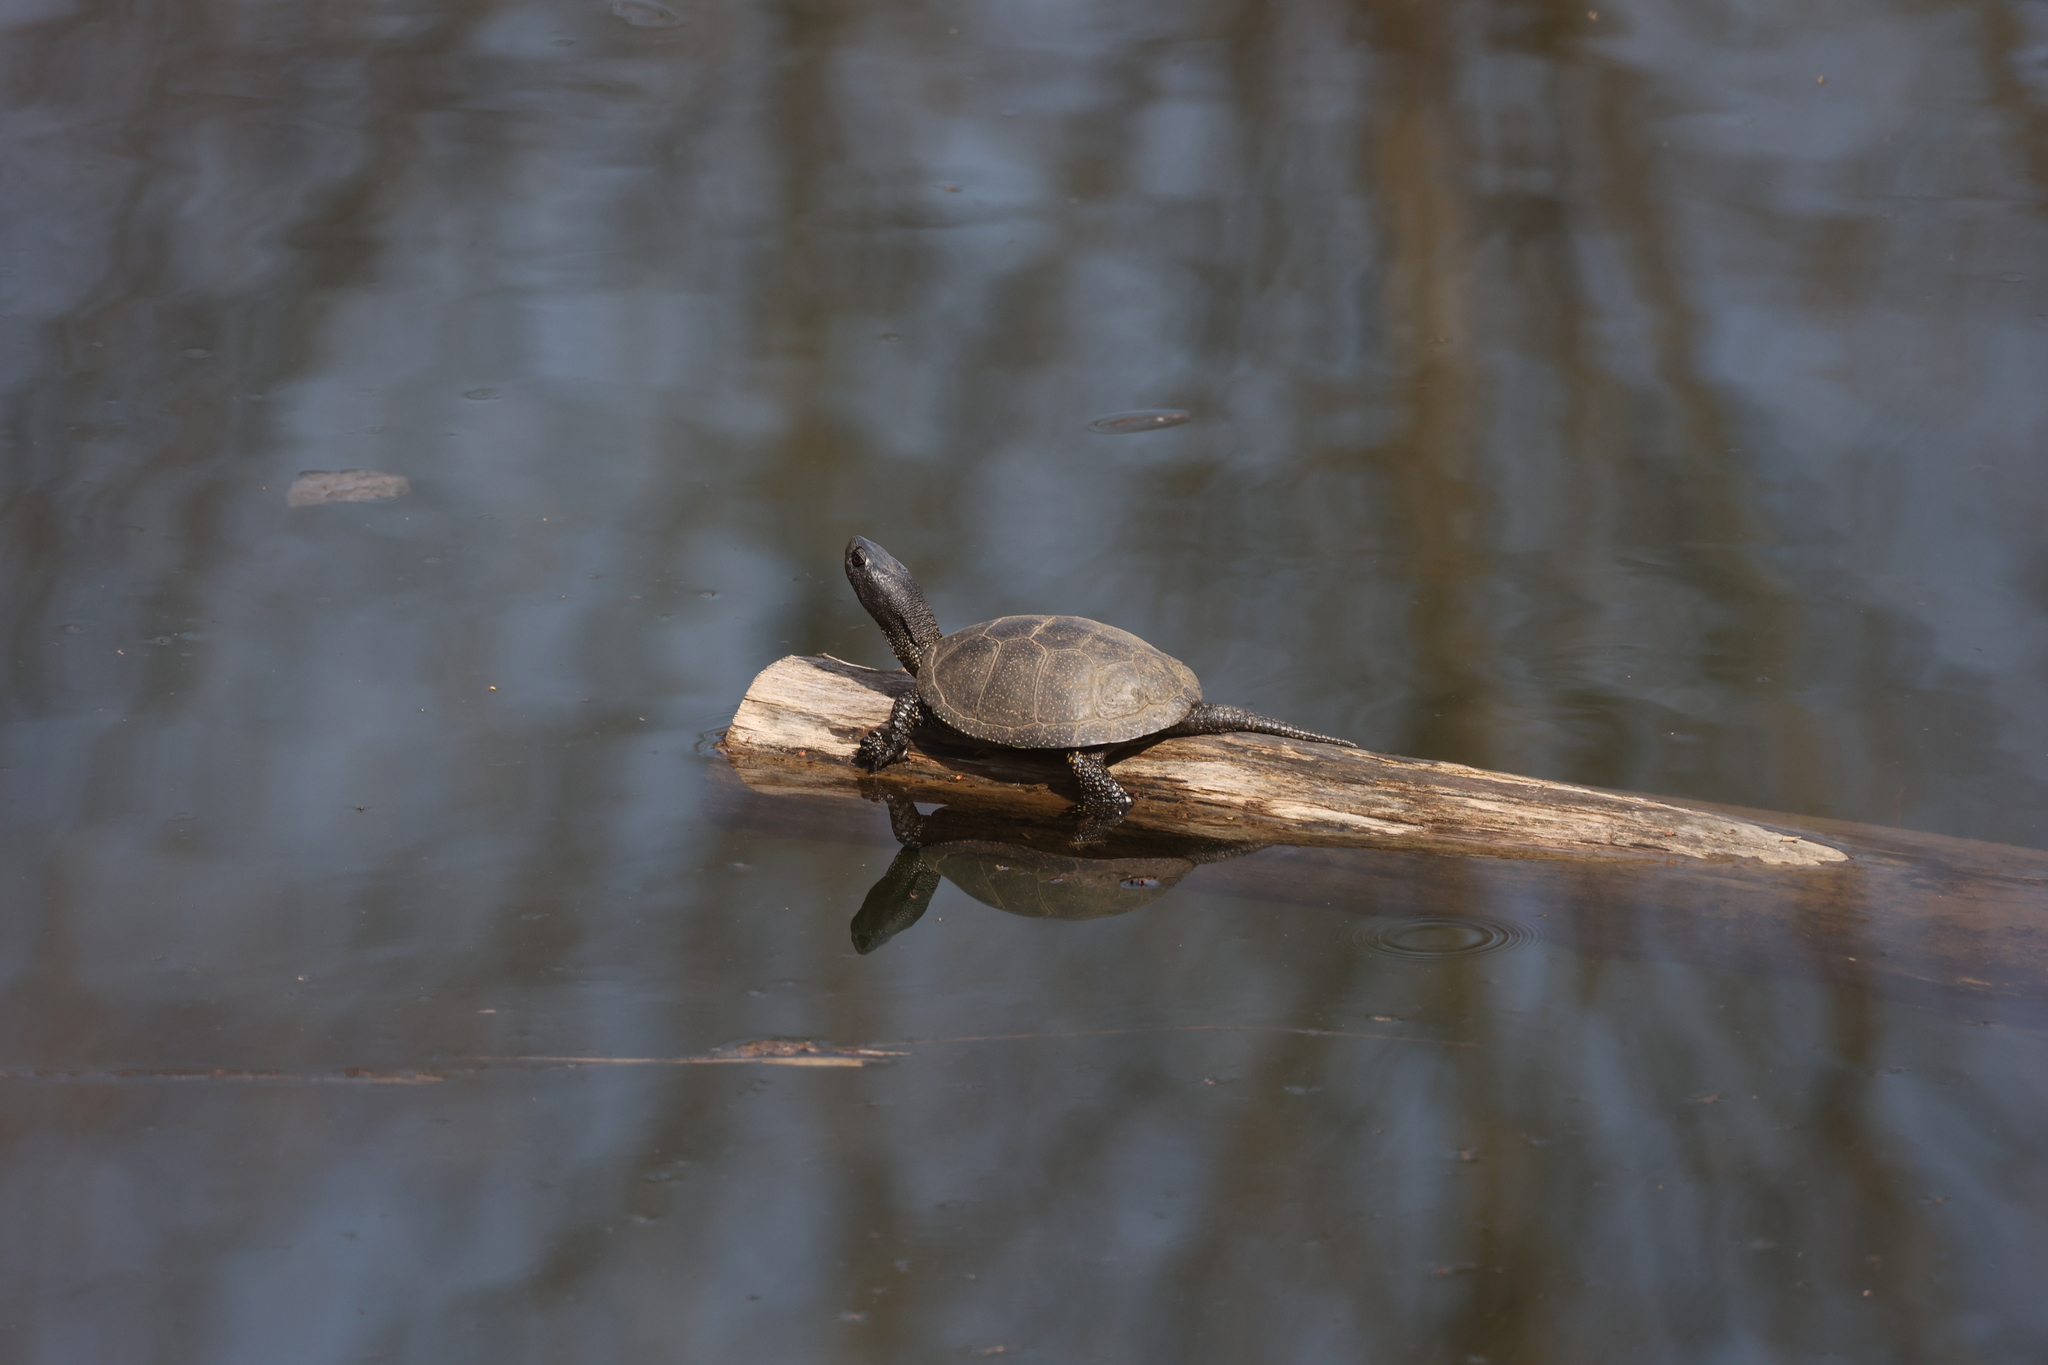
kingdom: Animalia
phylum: Chordata
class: Testudines
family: Emydidae
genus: Emys
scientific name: Emys orbicularis
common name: European pond turtle
